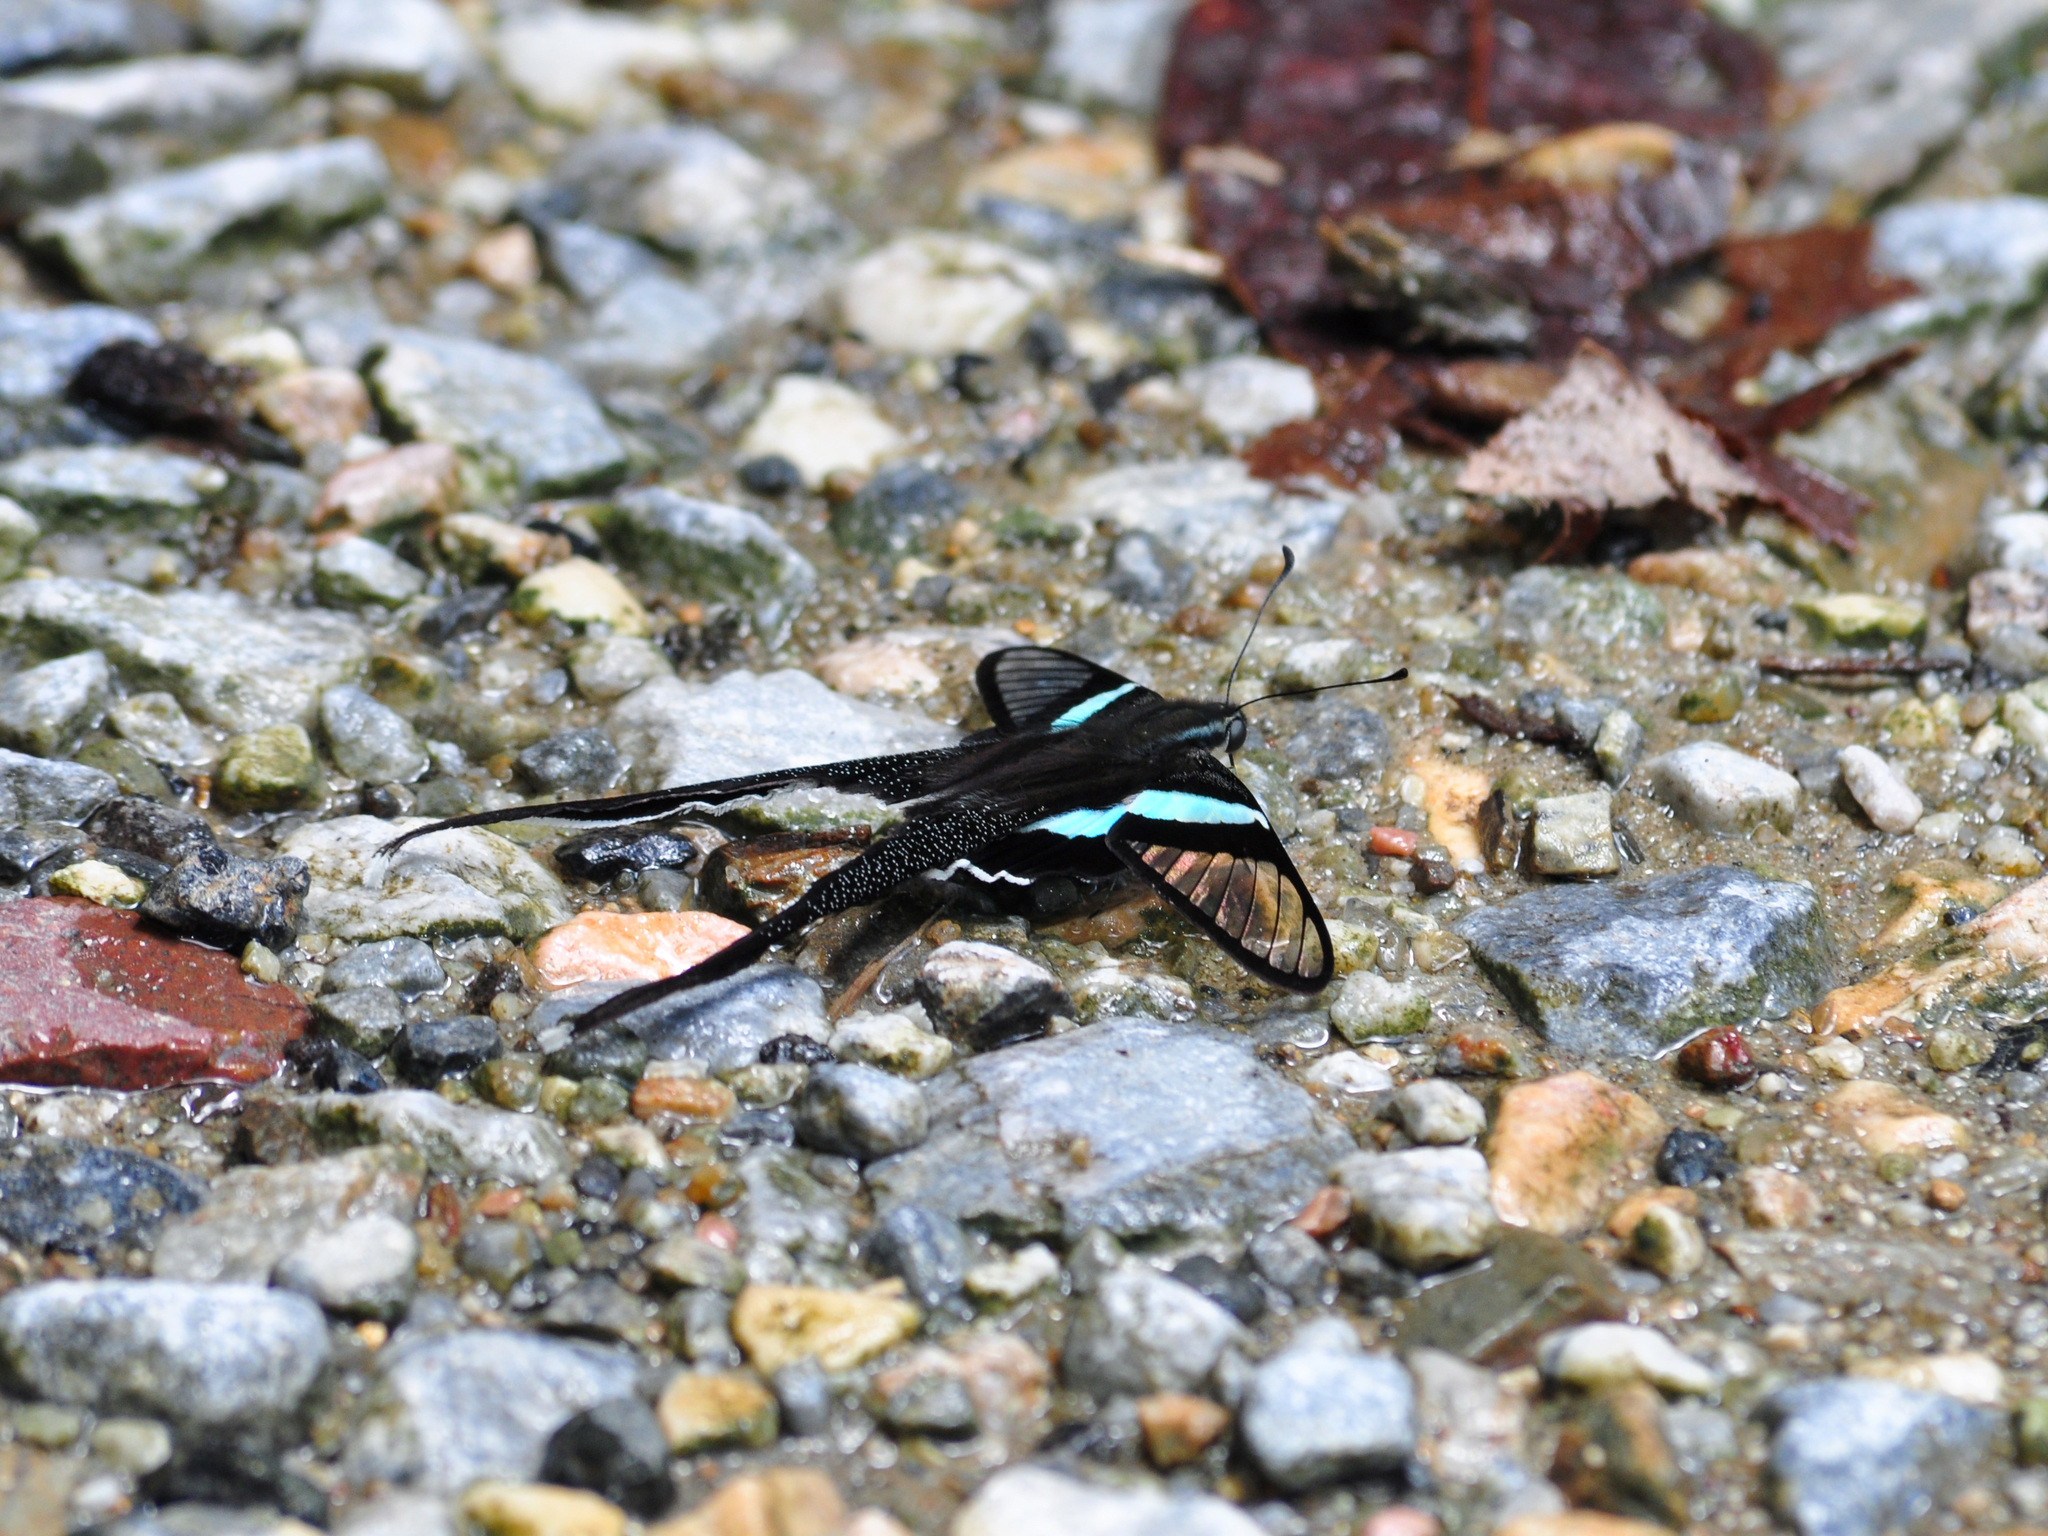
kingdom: Animalia
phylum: Arthropoda
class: Insecta
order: Lepidoptera
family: Papilionidae
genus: Lamproptera
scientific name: Lamproptera meges
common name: Green dragontail
